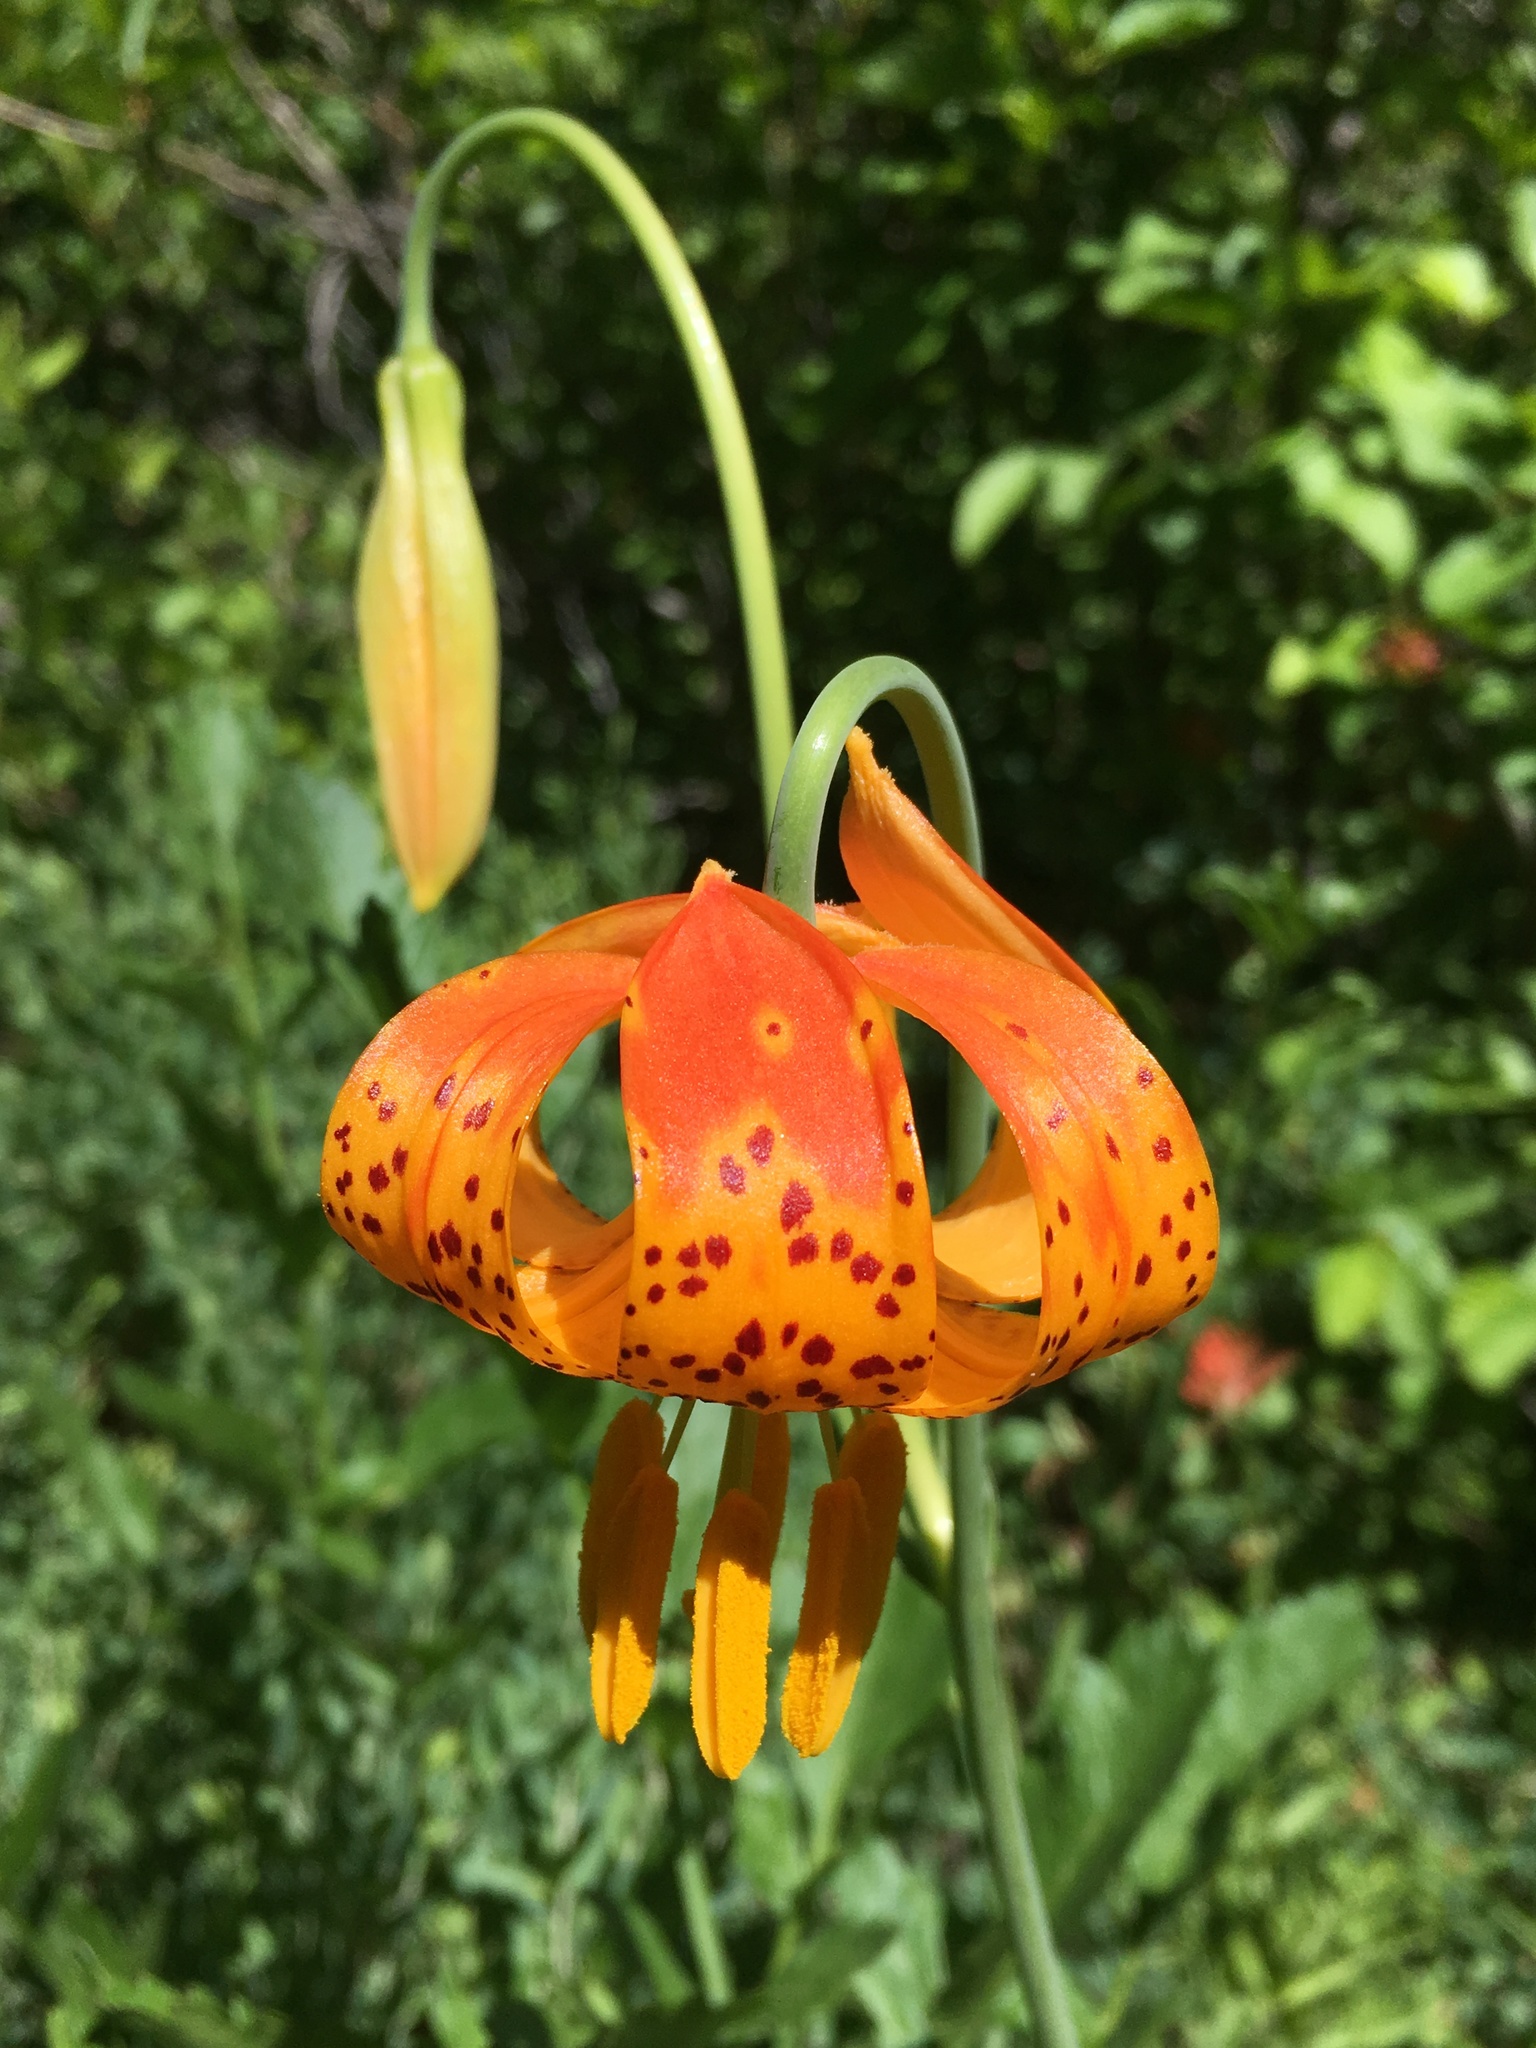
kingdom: Plantae
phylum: Tracheophyta
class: Liliopsida
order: Liliales
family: Liliaceae
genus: Lilium
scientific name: Lilium pardalinum
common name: Panther lily
